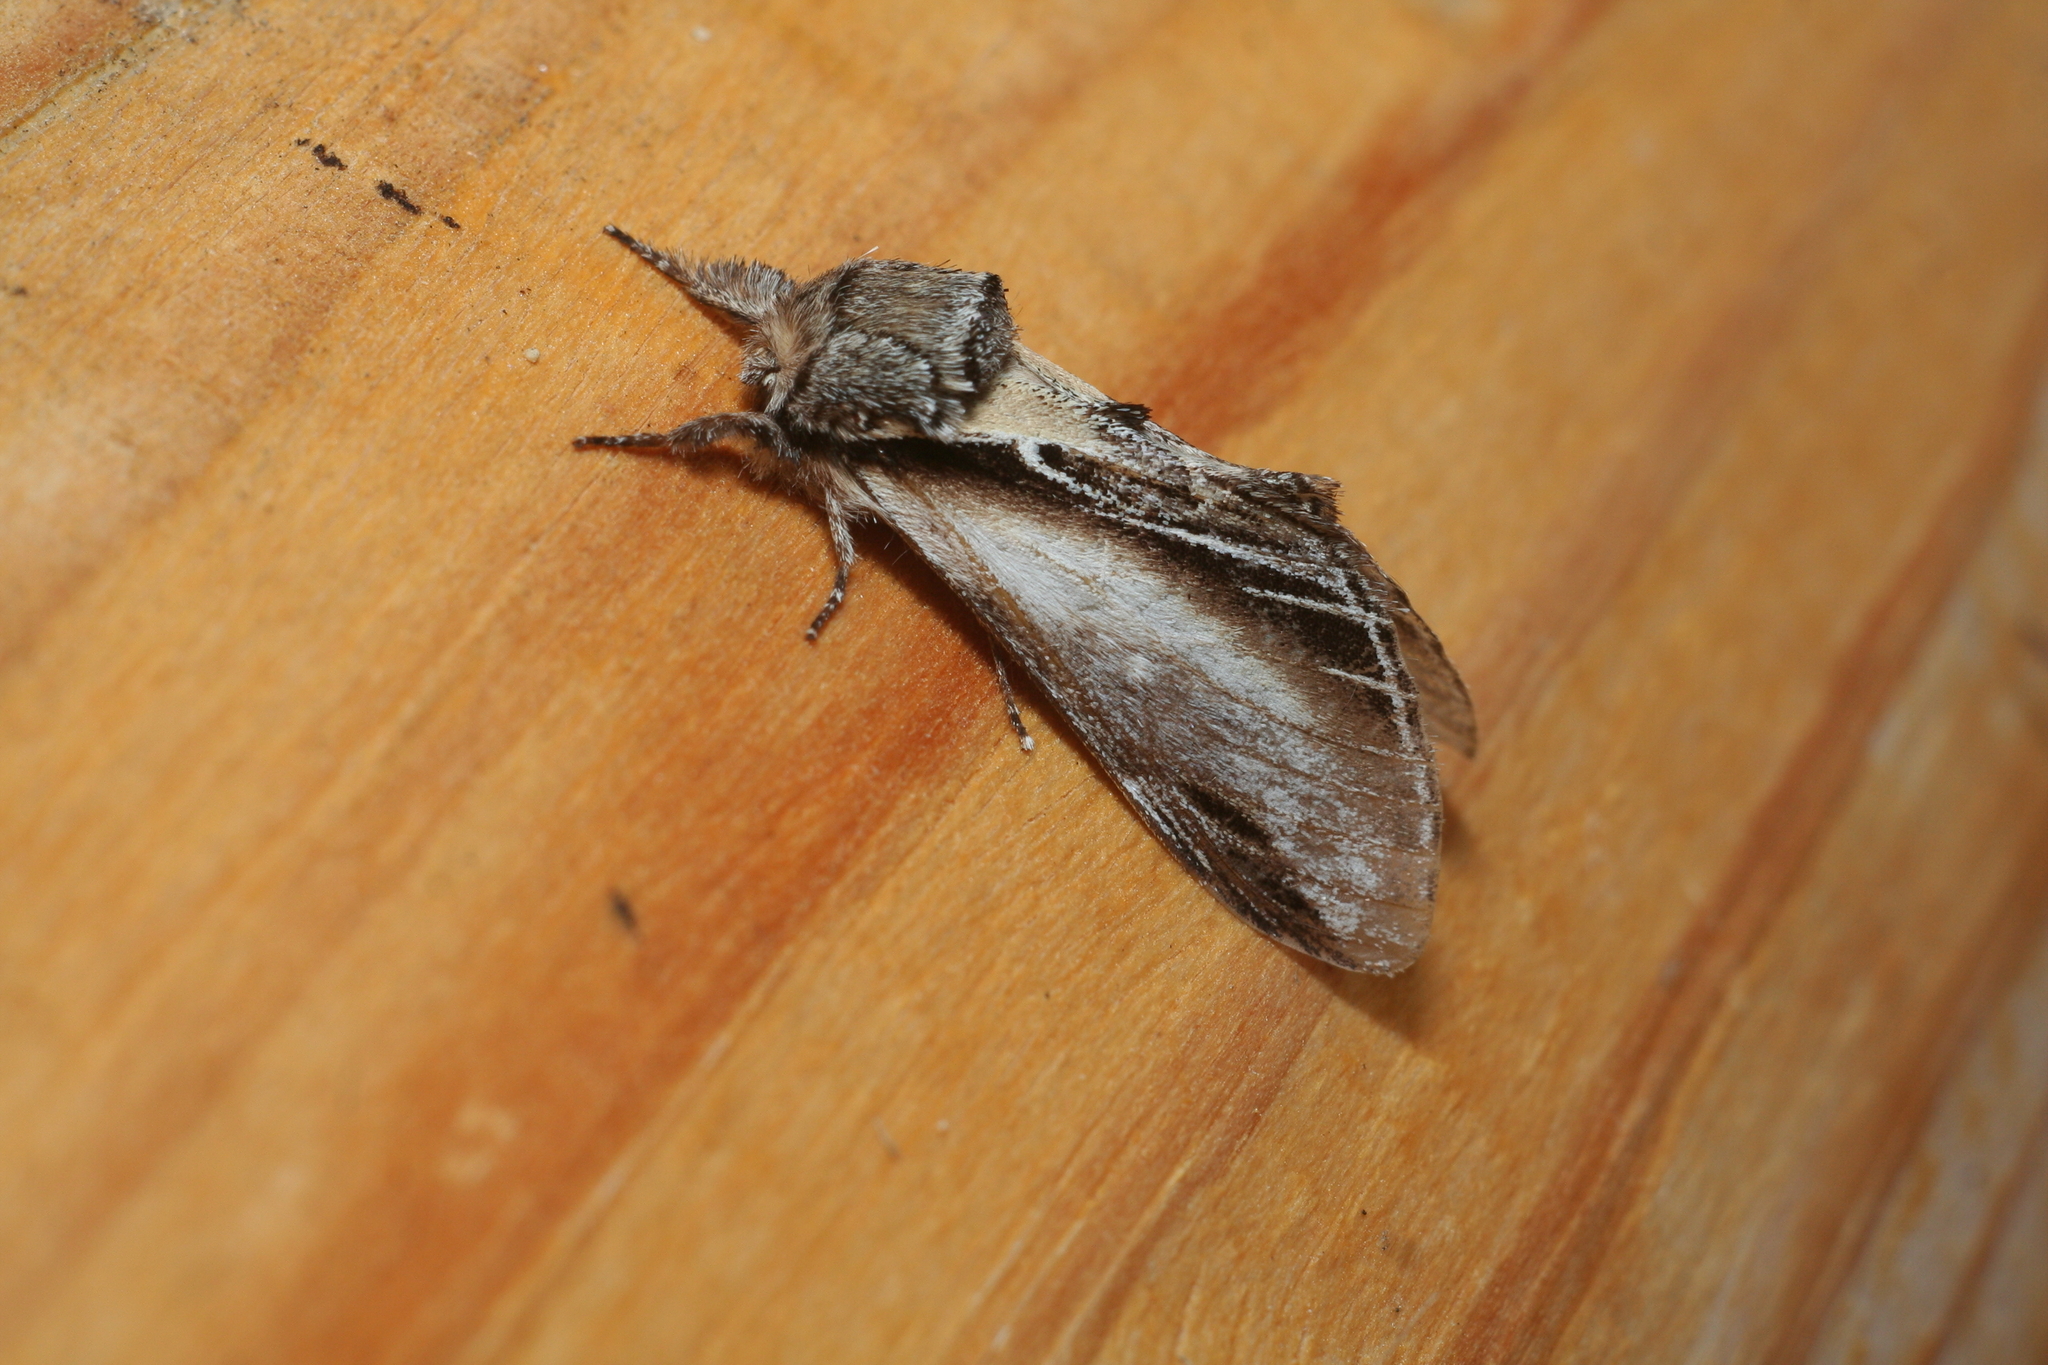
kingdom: Animalia
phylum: Arthropoda
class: Insecta
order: Lepidoptera
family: Notodontidae
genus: Pheosia
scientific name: Pheosia tremula
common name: Swallow prominent
